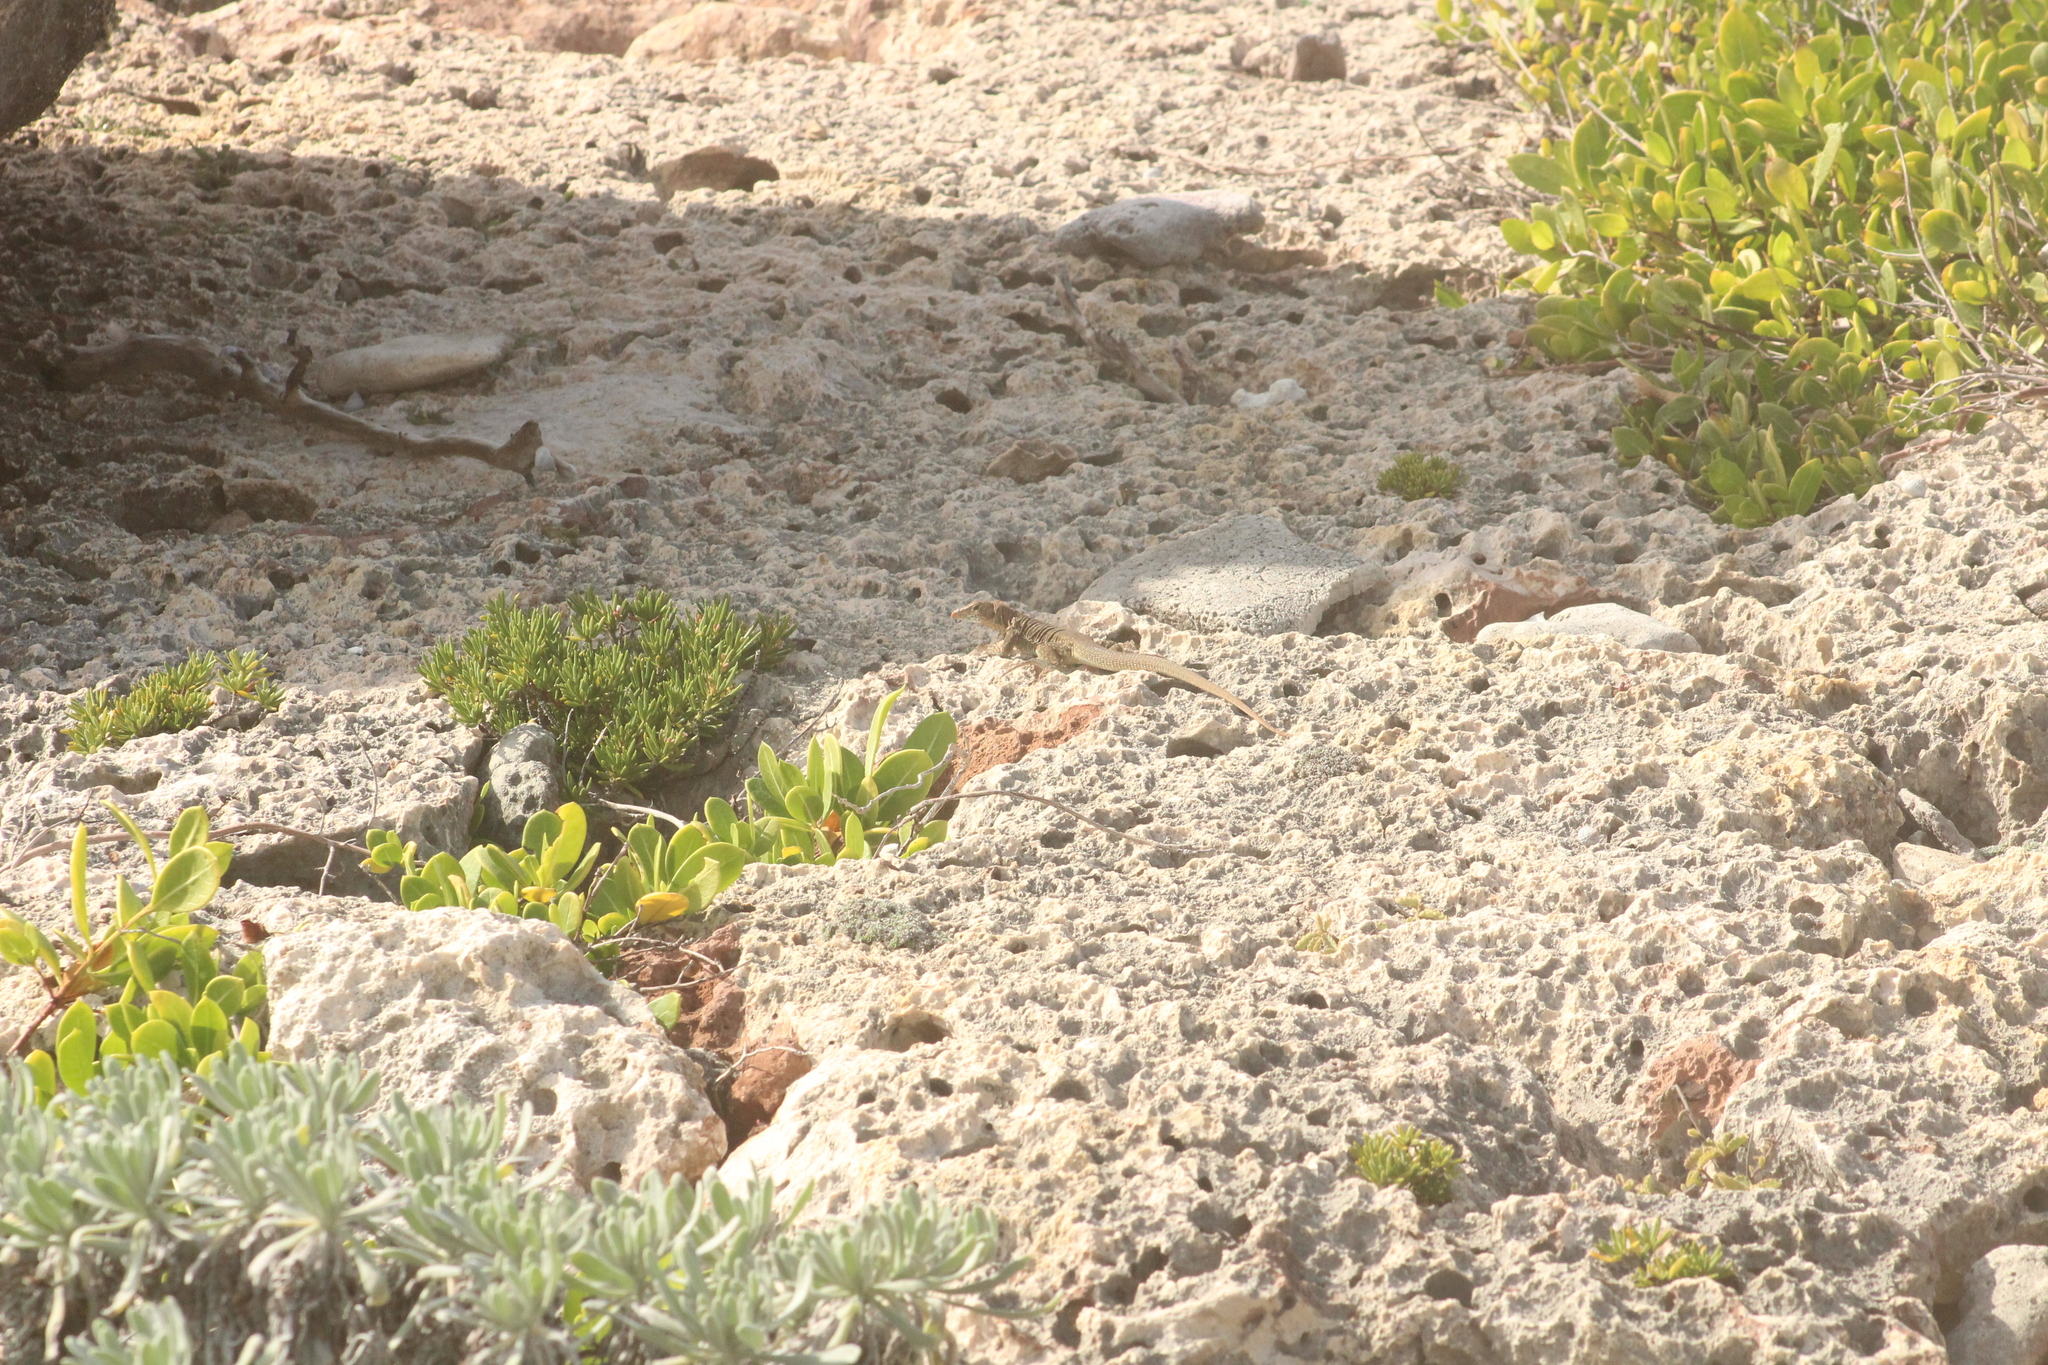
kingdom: Animalia
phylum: Chordata
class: Squamata
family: Teiidae
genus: Pholidoscelis
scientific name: Pholidoscelis plei
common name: Anguilla bank ameiva
